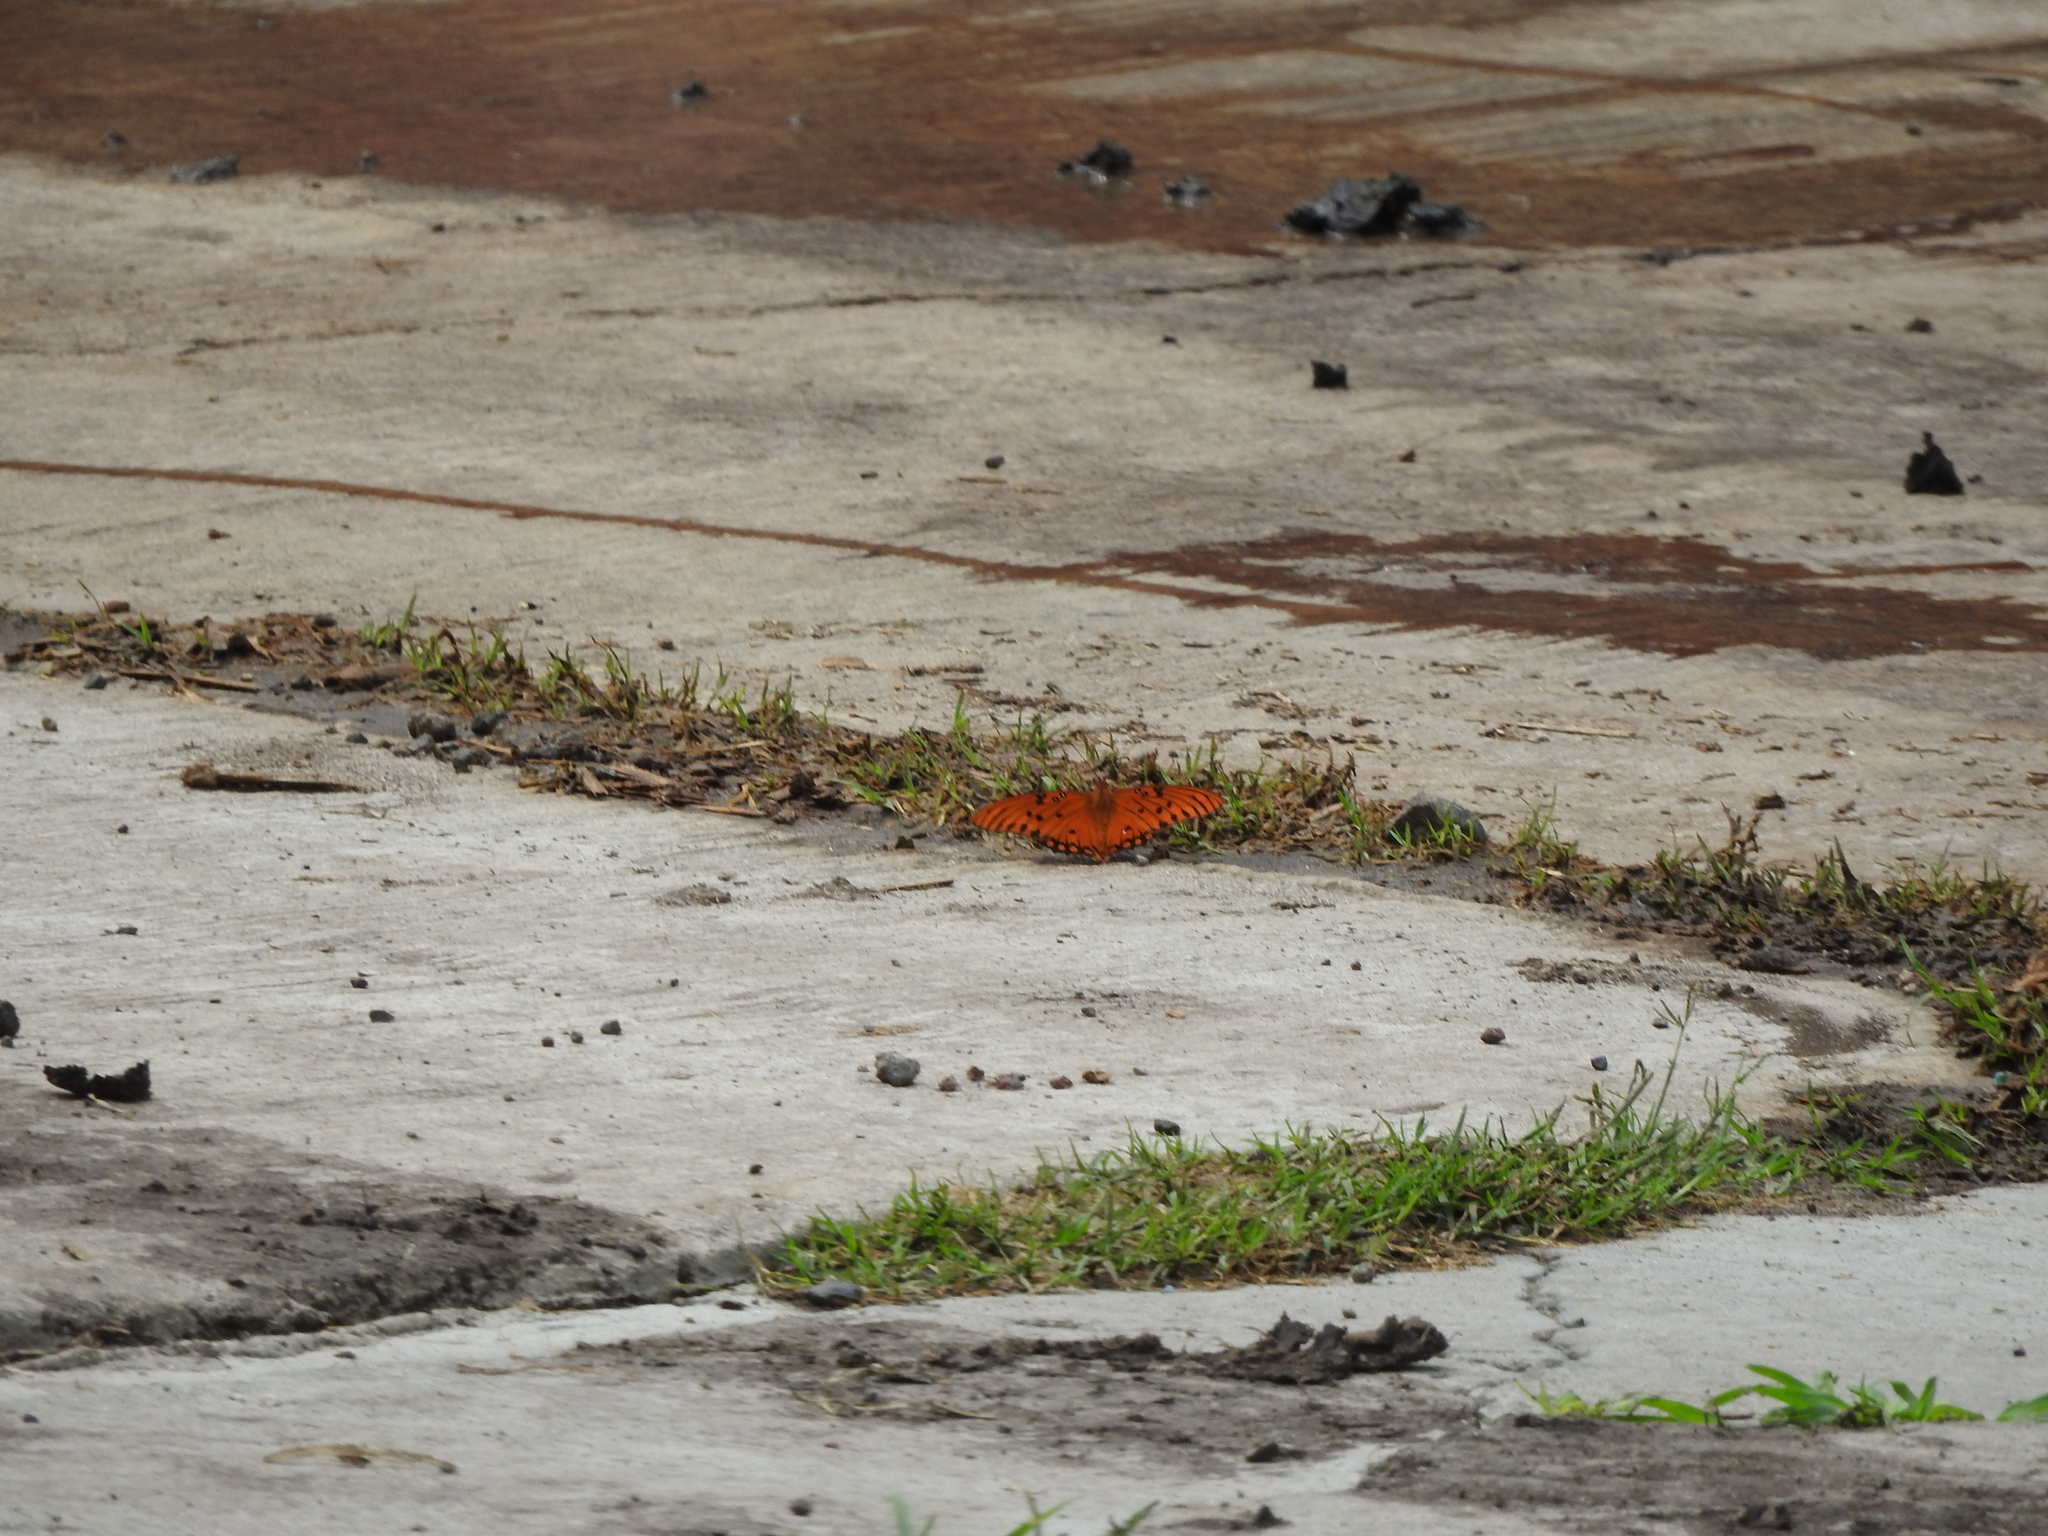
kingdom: Animalia
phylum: Arthropoda
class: Insecta
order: Lepidoptera
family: Nymphalidae
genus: Dione
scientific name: Dione vanillae
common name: Gulf fritillary
